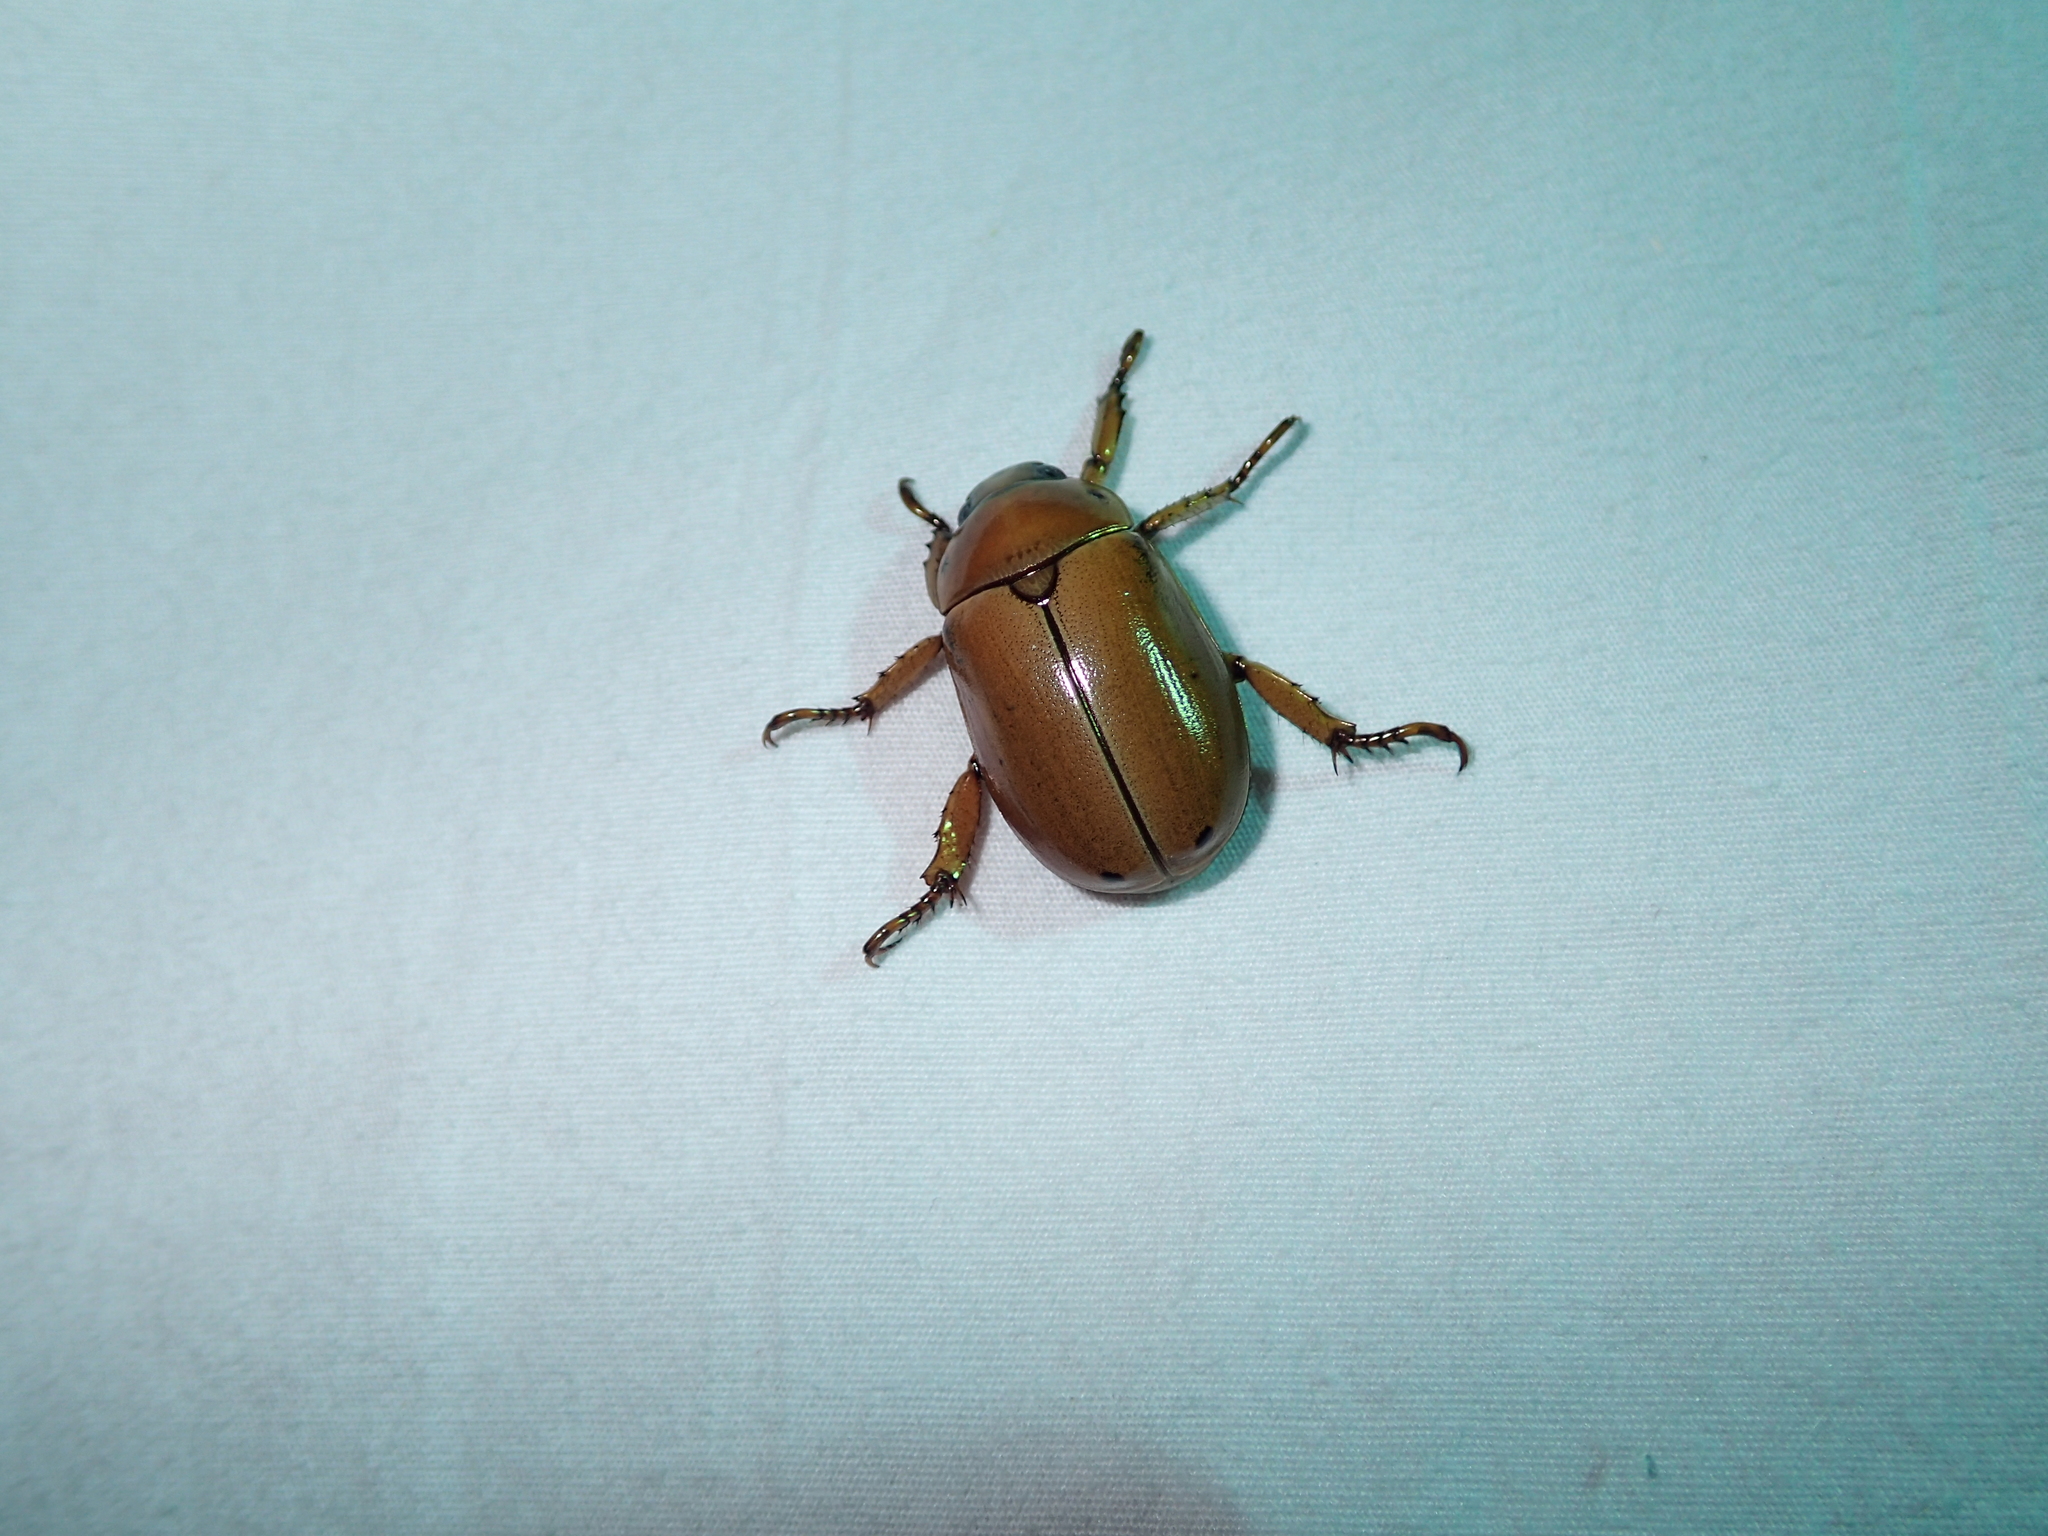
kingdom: Animalia
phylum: Arthropoda
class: Insecta
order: Coleoptera
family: Scarabaeidae
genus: Pelidnota
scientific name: Pelidnota punctata
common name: Grapevine beetle
